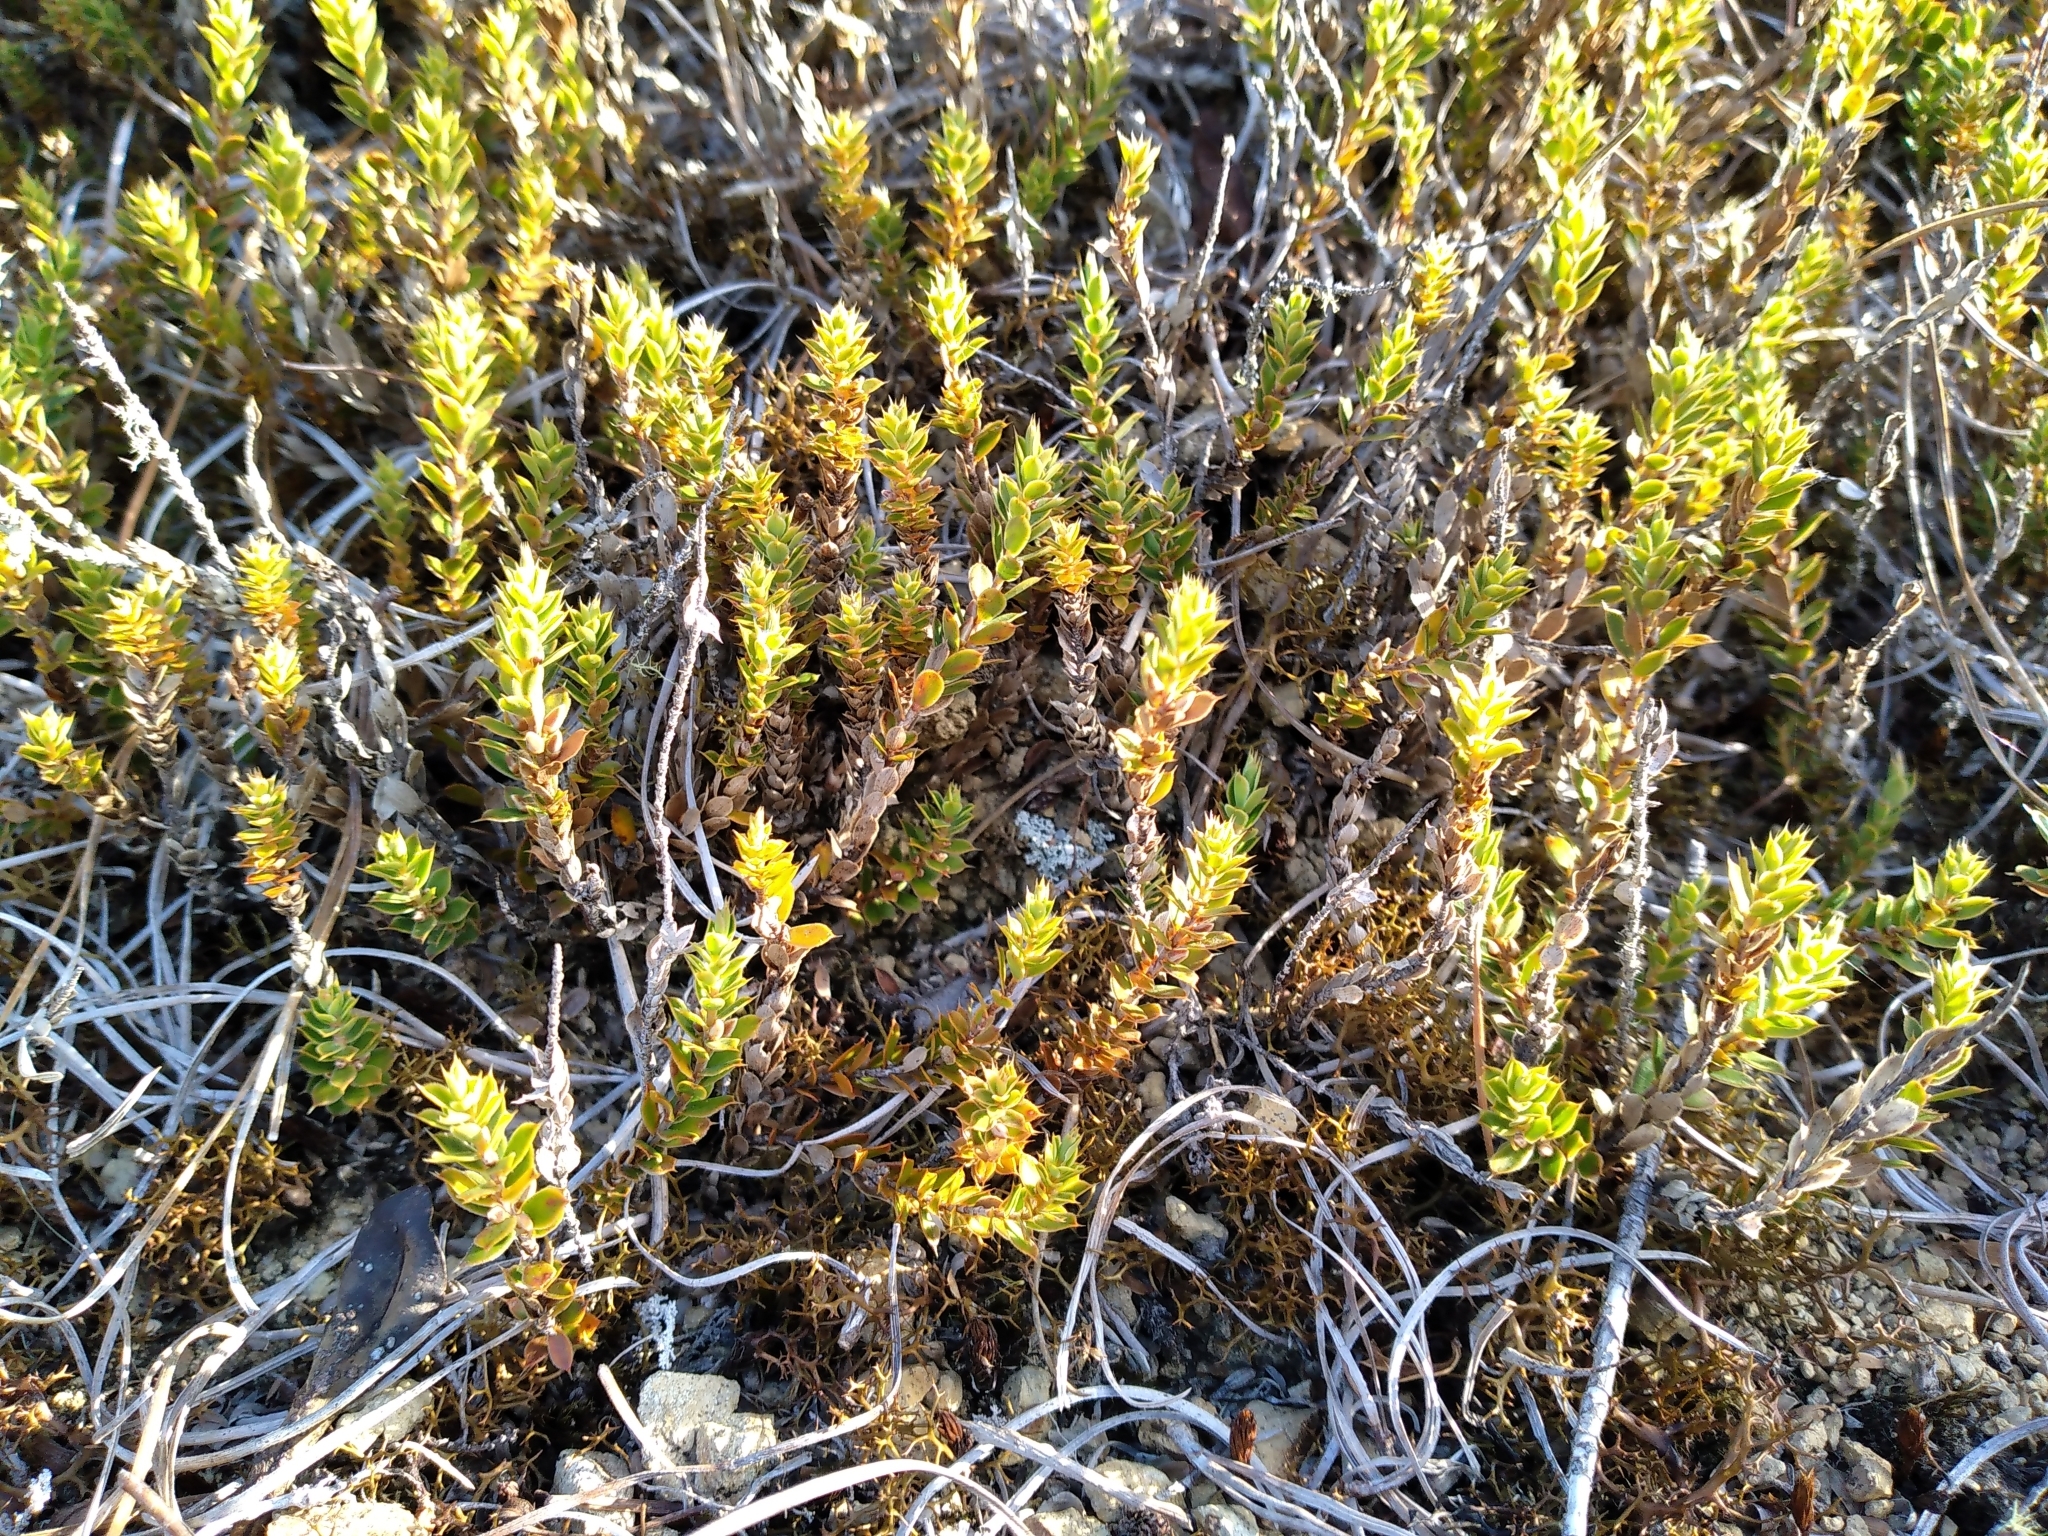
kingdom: Plantae
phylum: Tracheophyta
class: Magnoliopsida
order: Ericales
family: Ericaceae
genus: Styphelia
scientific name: Styphelia nesophila
